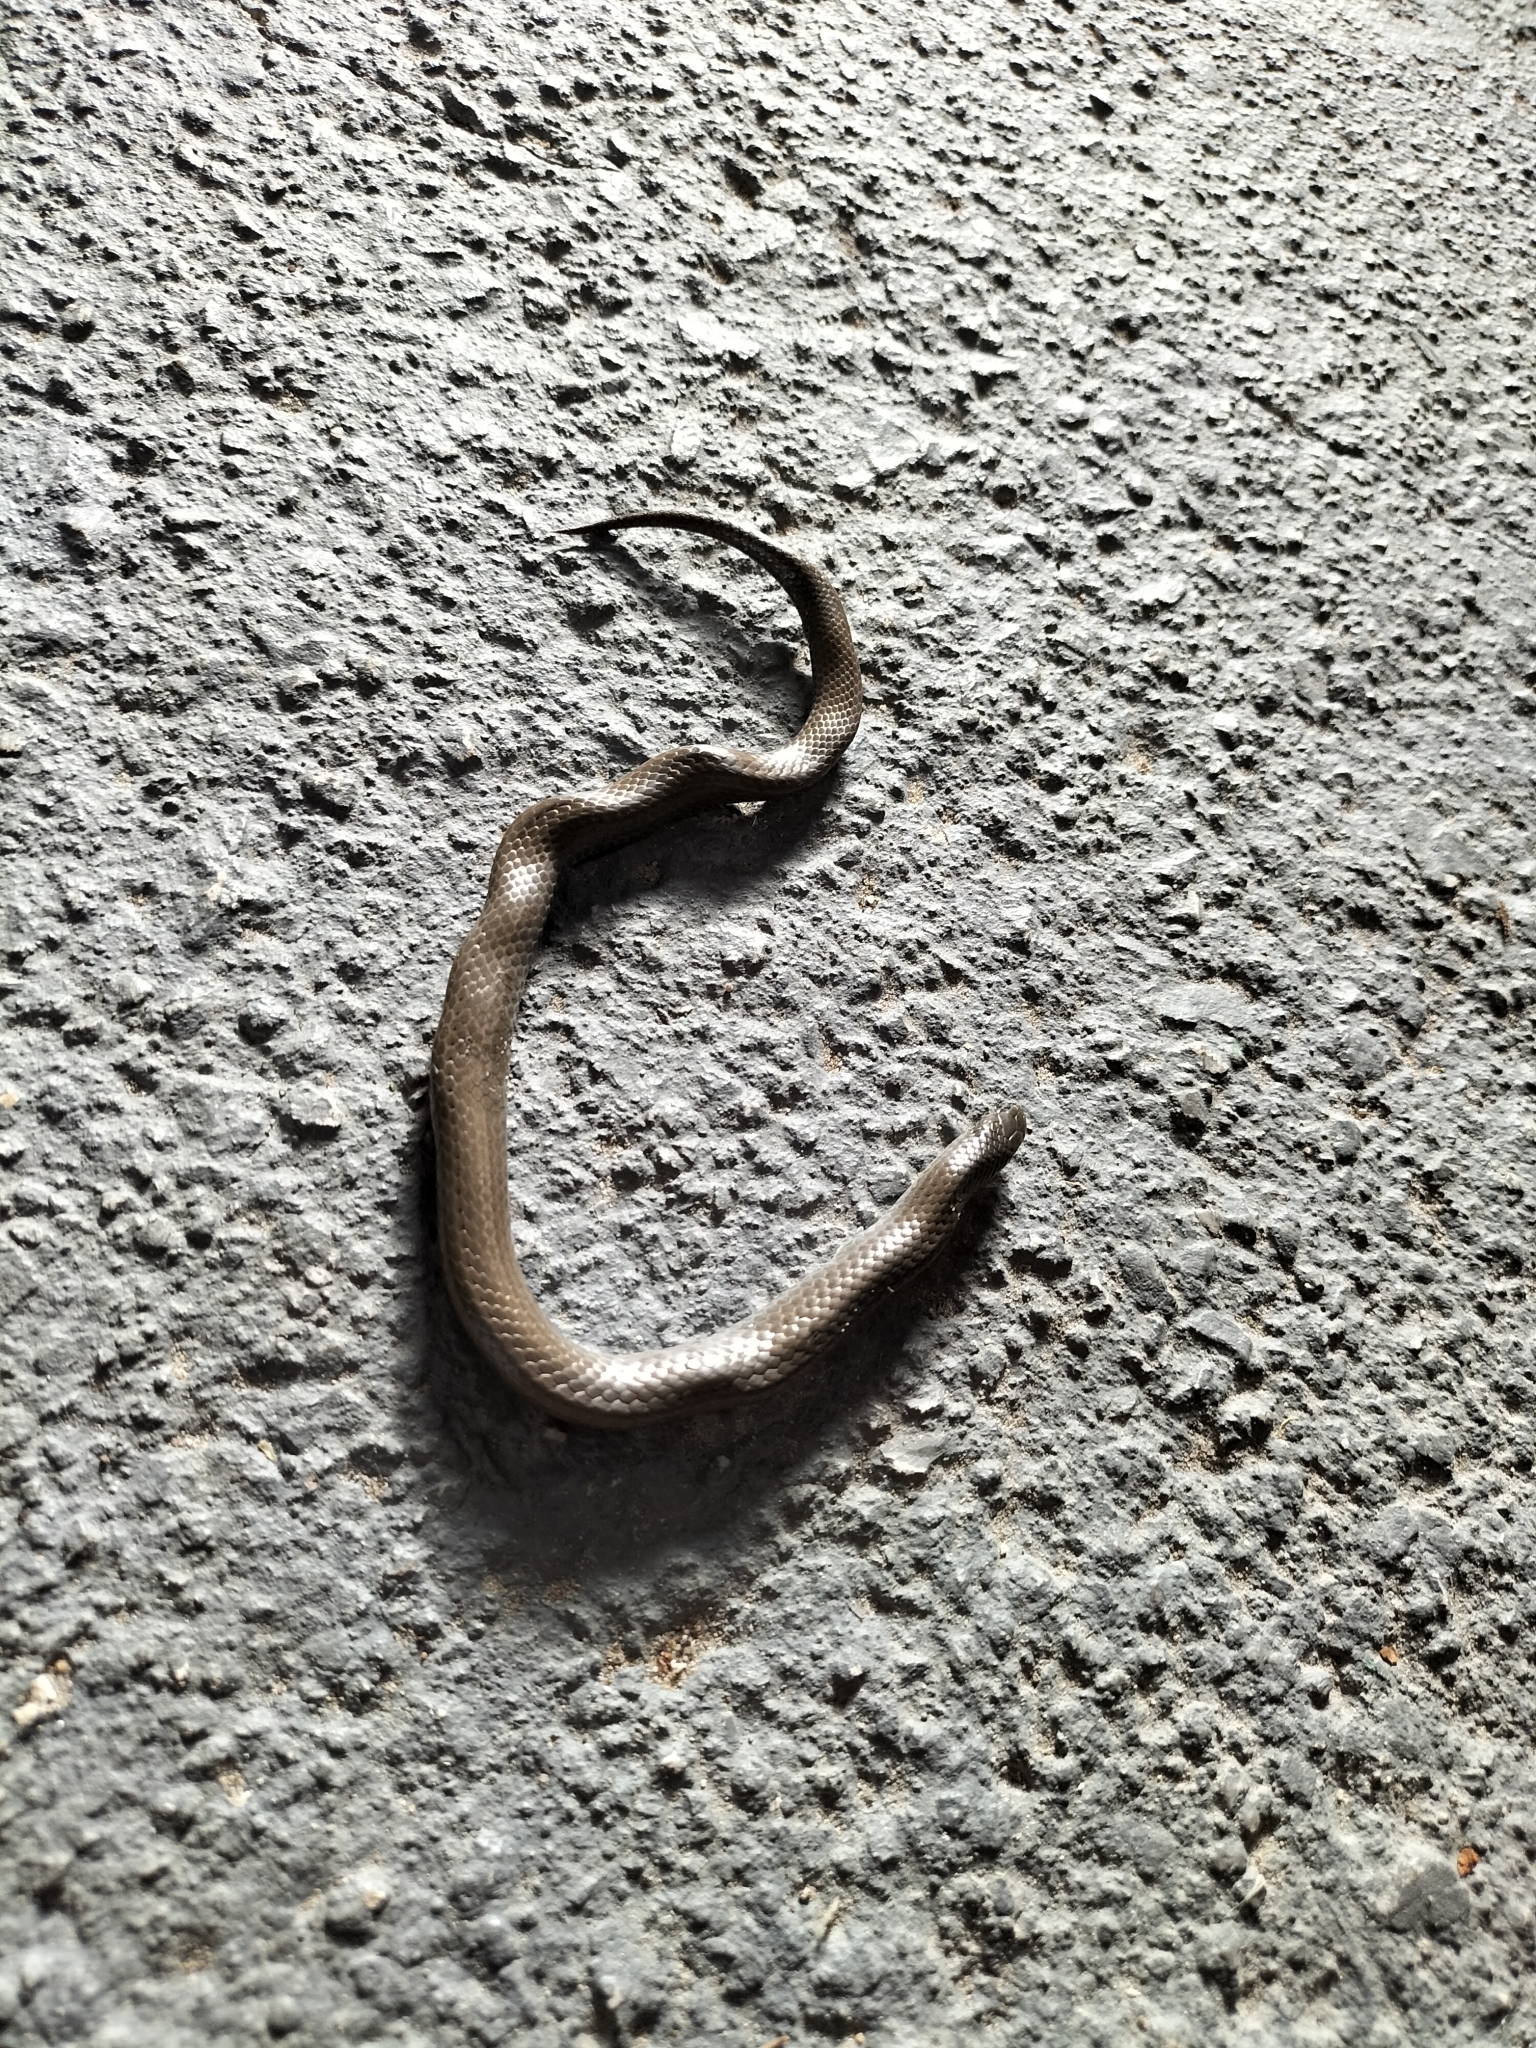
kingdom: Animalia
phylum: Chordata
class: Squamata
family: Pseudoxyrhophiidae
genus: Duberria
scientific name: Duberria lutrix
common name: Common slug eater
